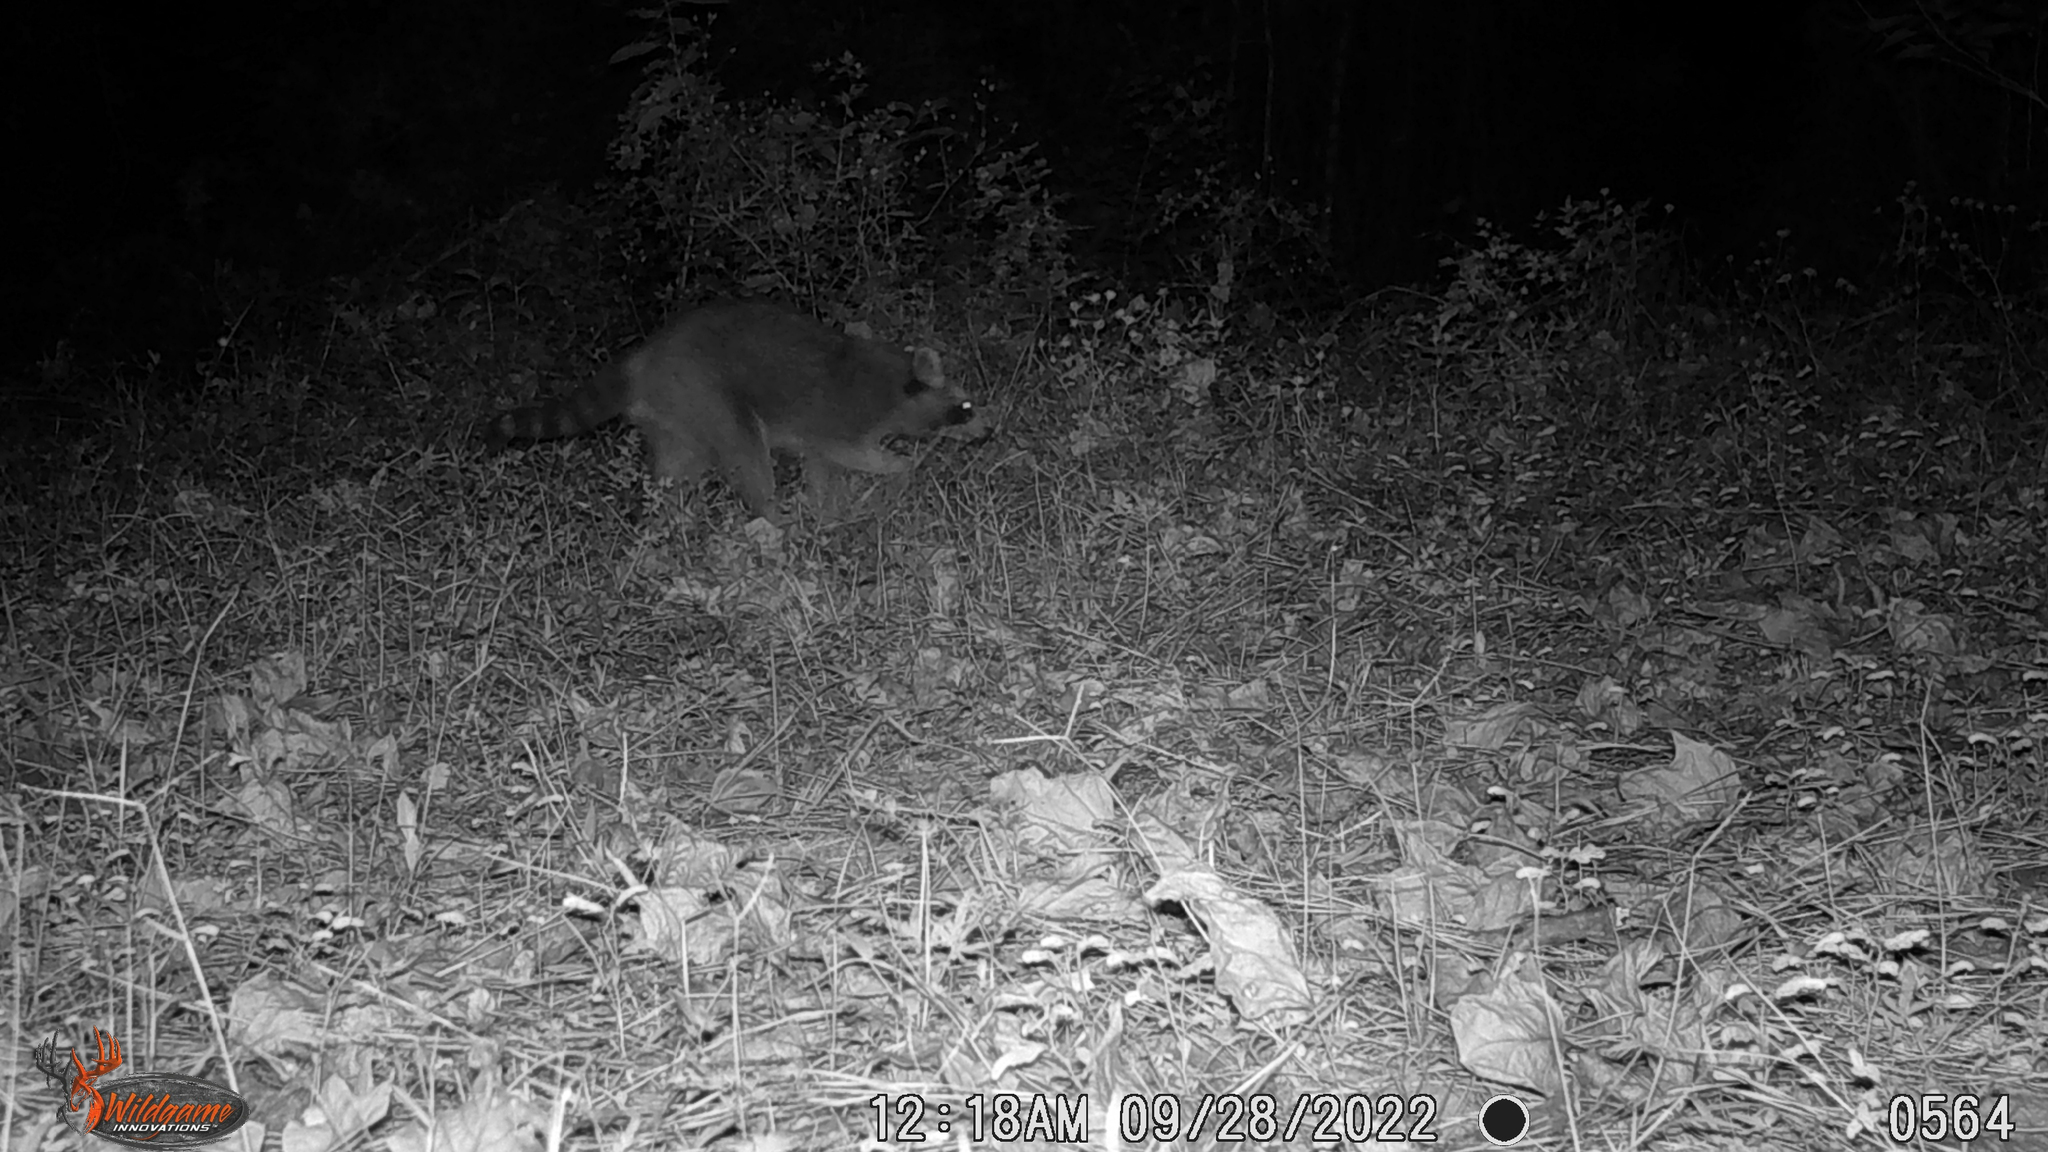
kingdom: Animalia
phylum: Chordata
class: Mammalia
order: Carnivora
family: Procyonidae
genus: Procyon
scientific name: Procyon lotor
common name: Raccoon
